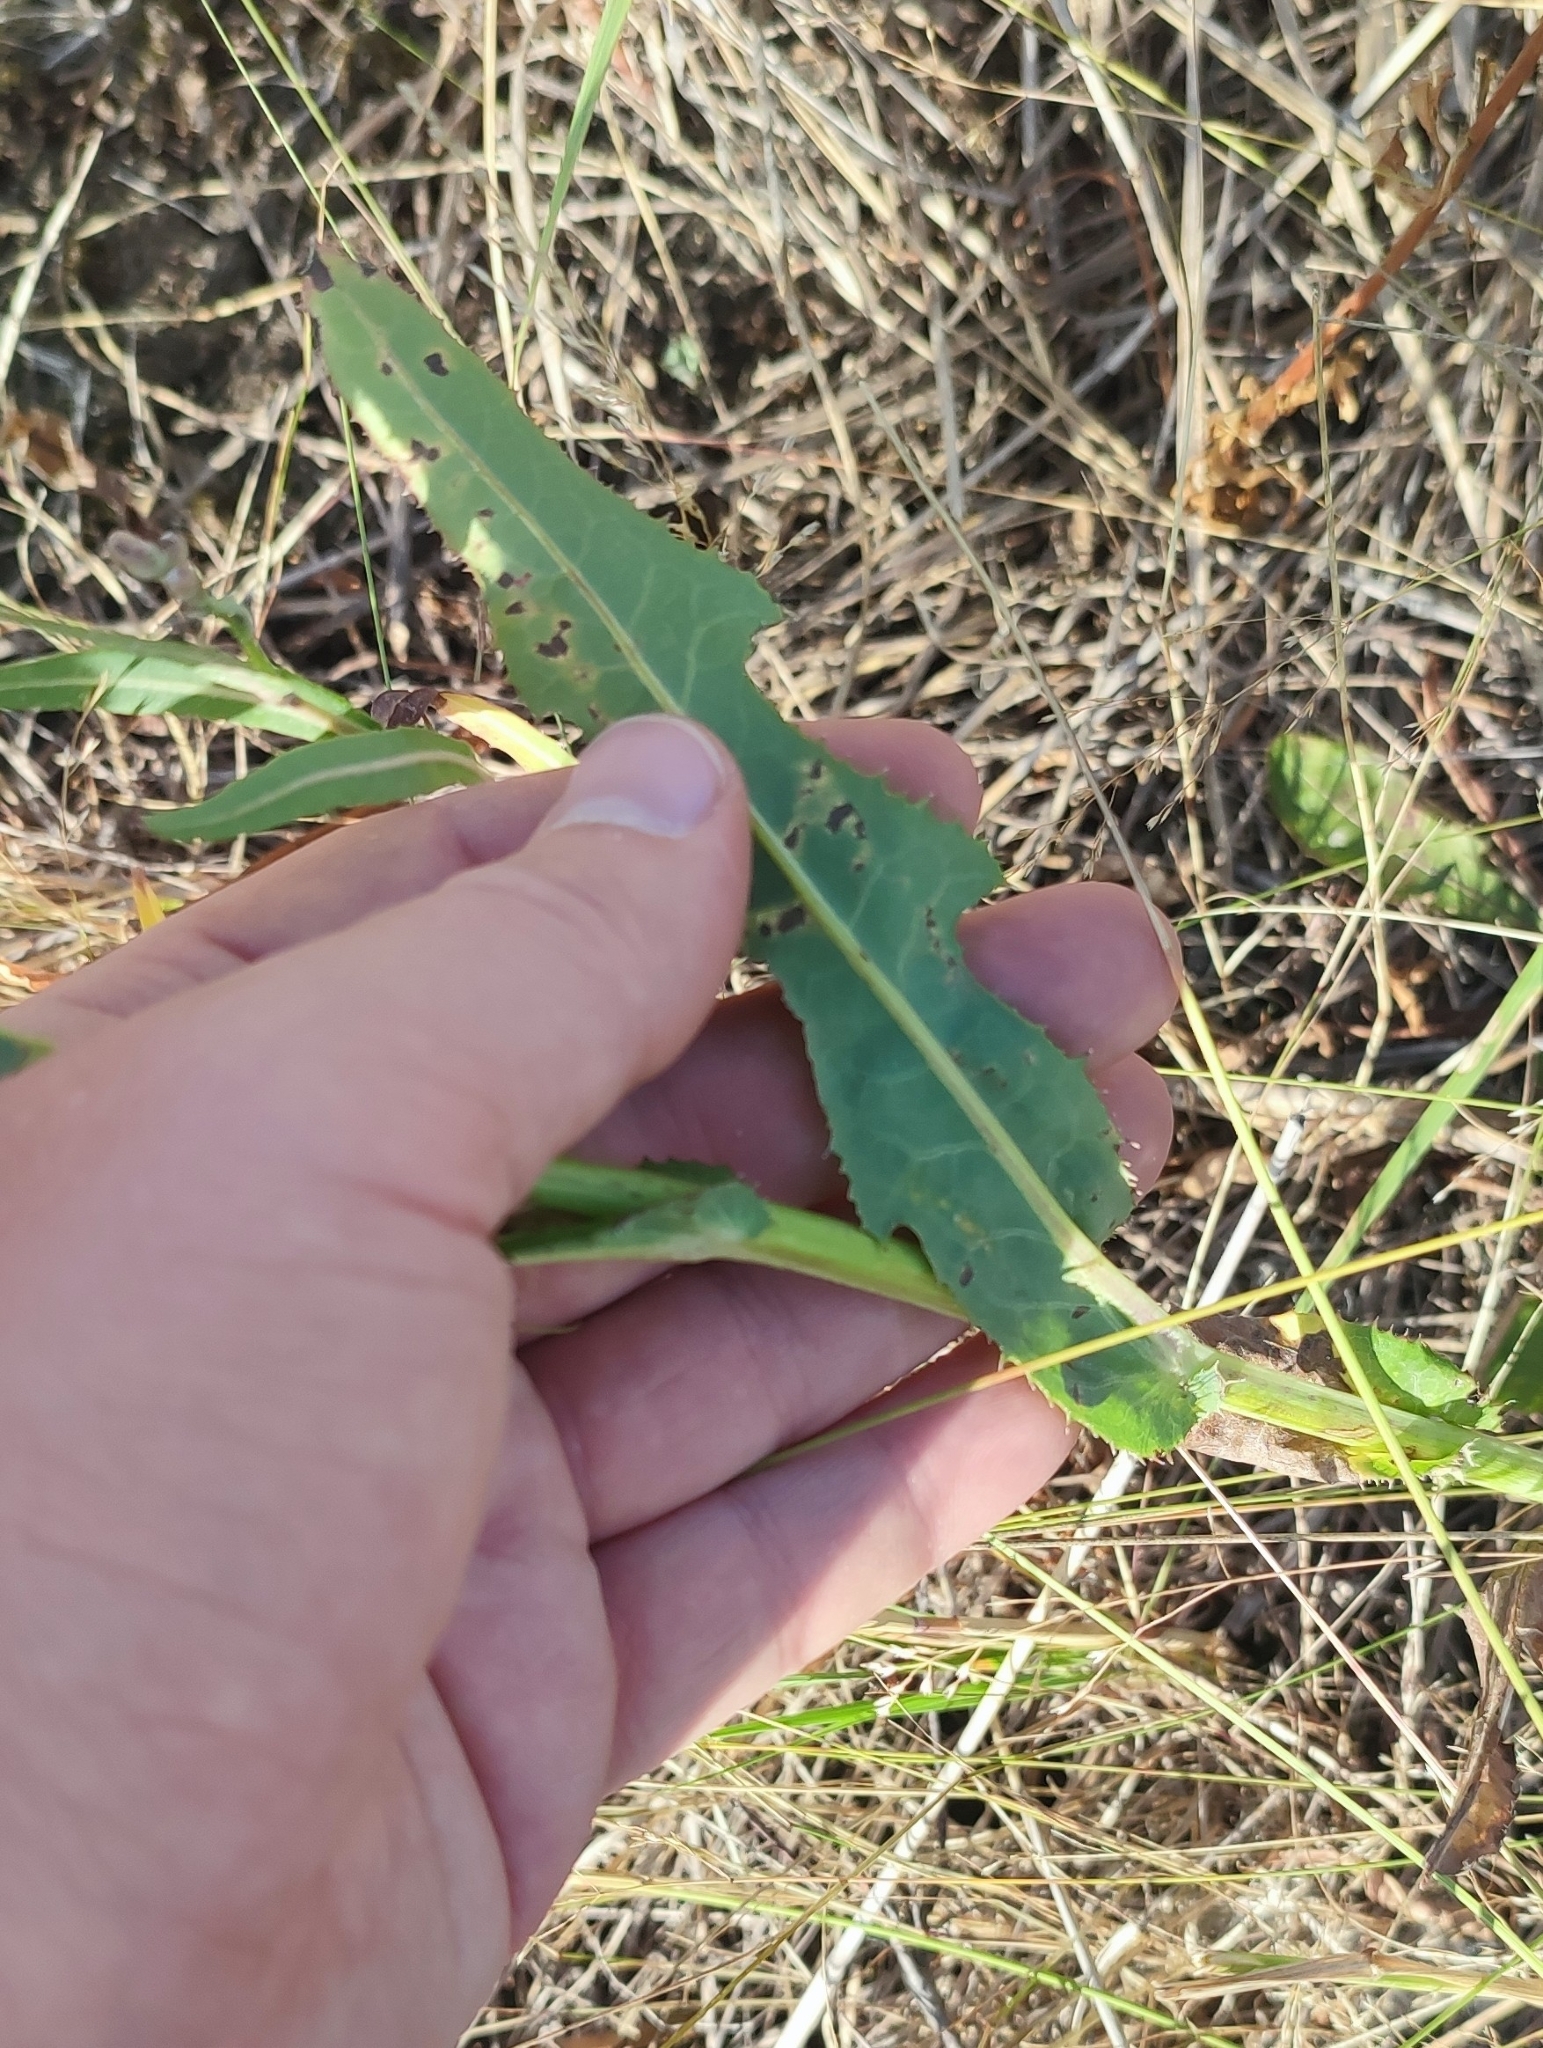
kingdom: Plantae
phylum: Tracheophyta
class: Magnoliopsida
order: Asterales
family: Asteraceae
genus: Sonchus
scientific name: Sonchus arvensis
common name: Perennial sow-thistle
